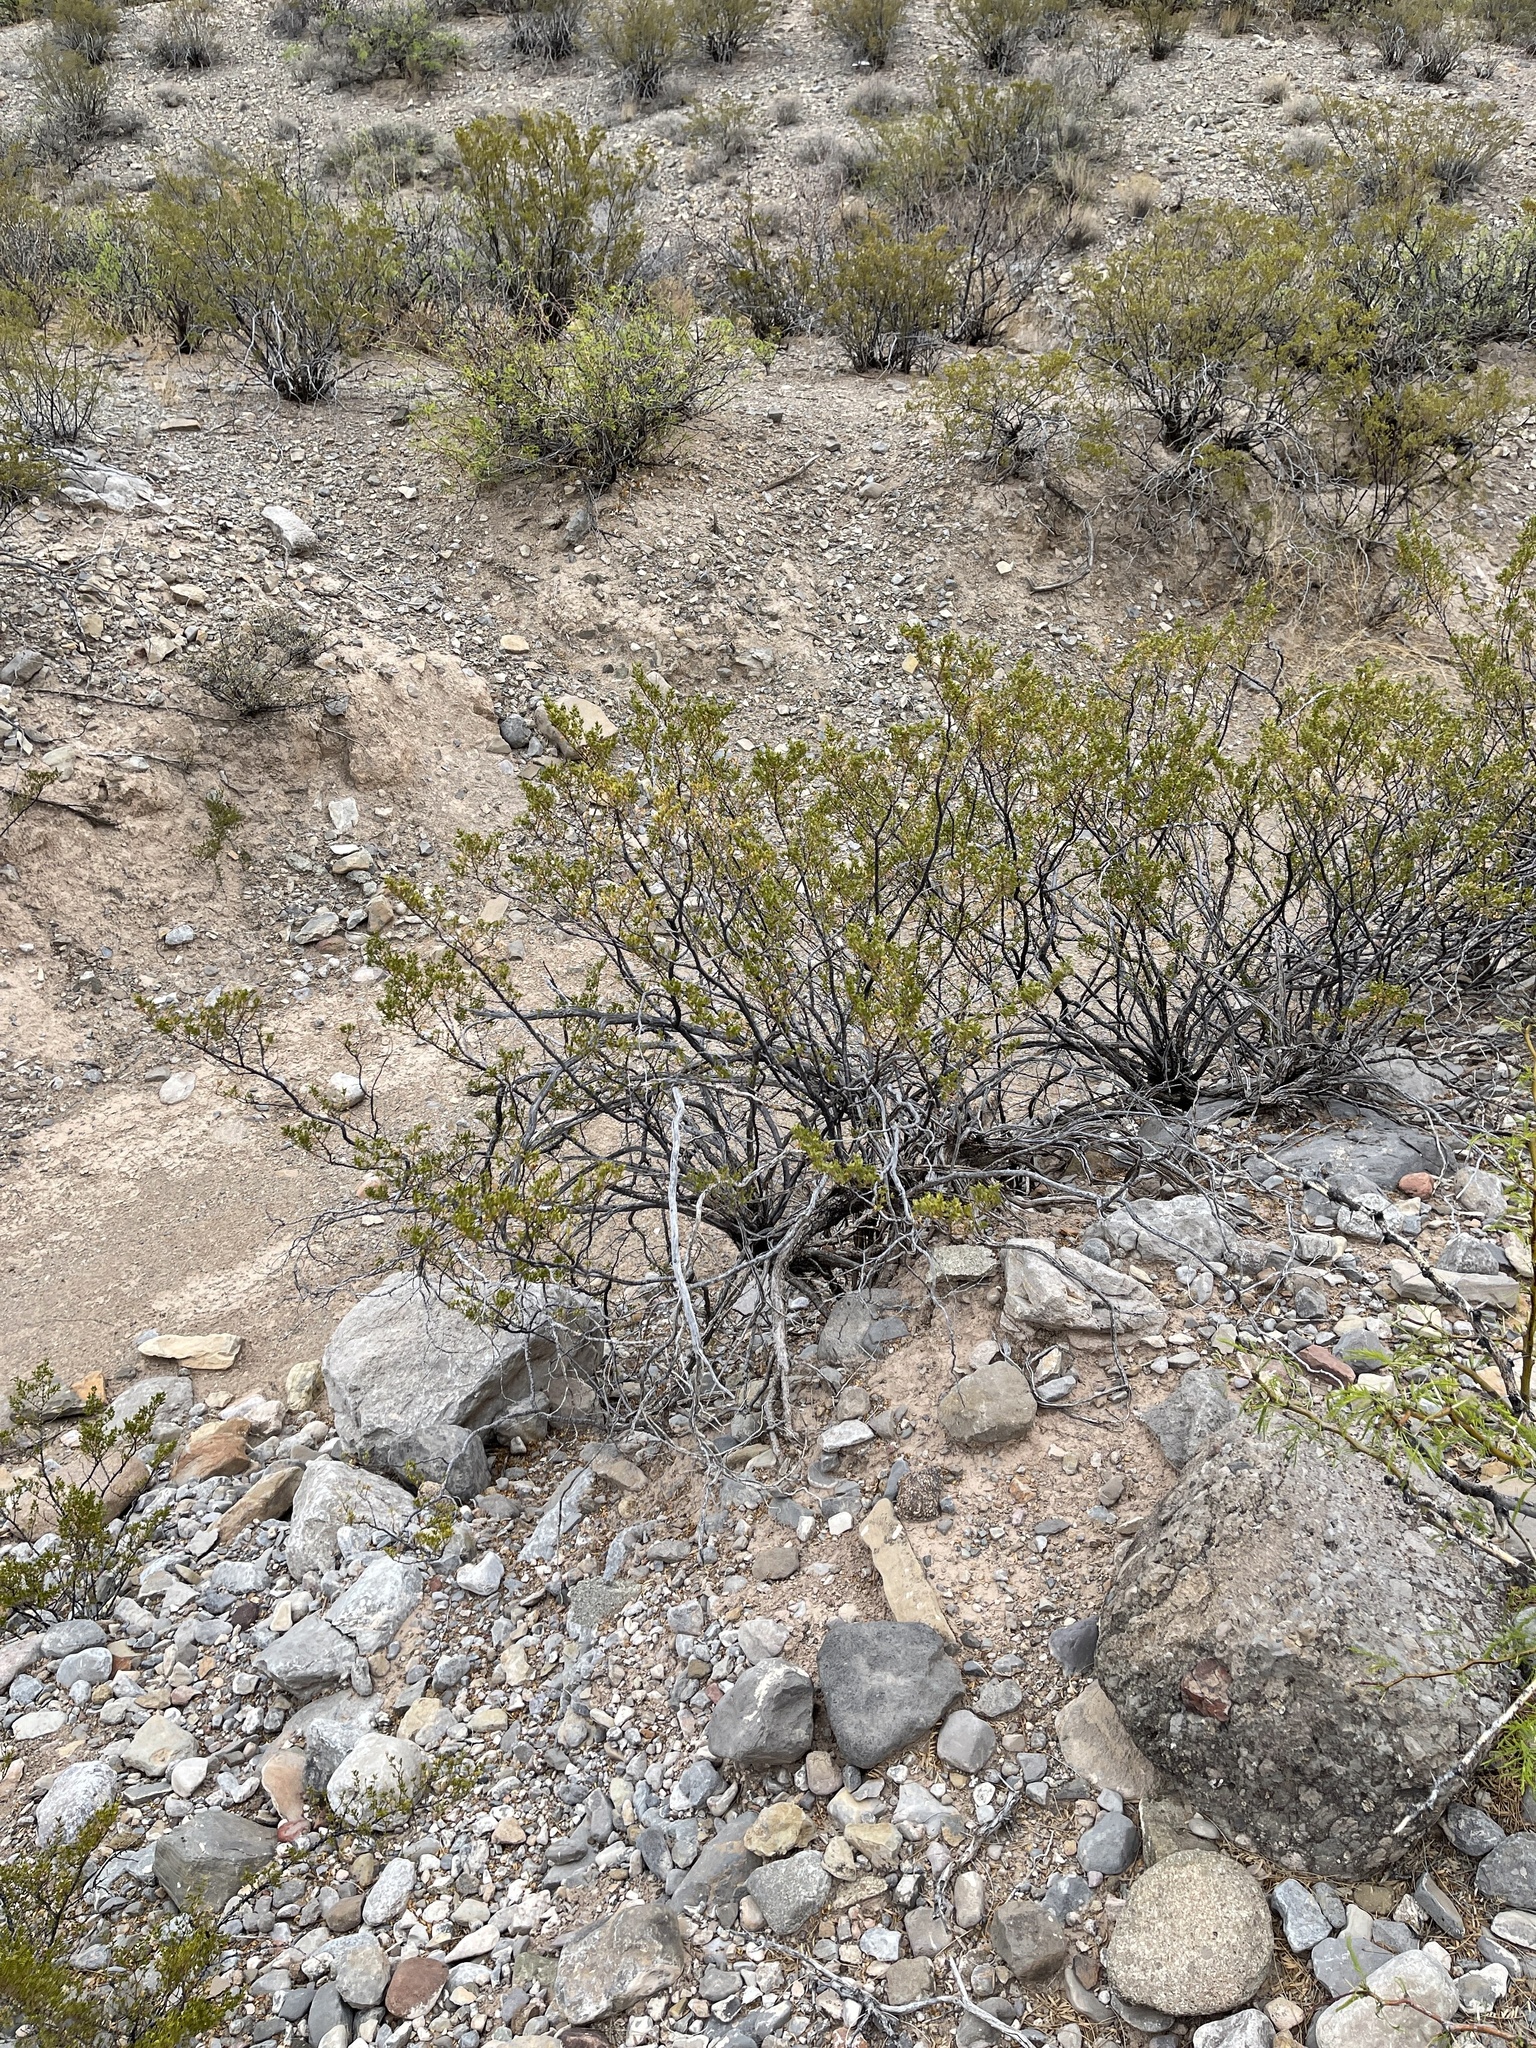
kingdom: Plantae
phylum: Tracheophyta
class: Magnoliopsida
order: Zygophyllales
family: Zygophyllaceae
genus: Larrea
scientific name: Larrea tridentata
